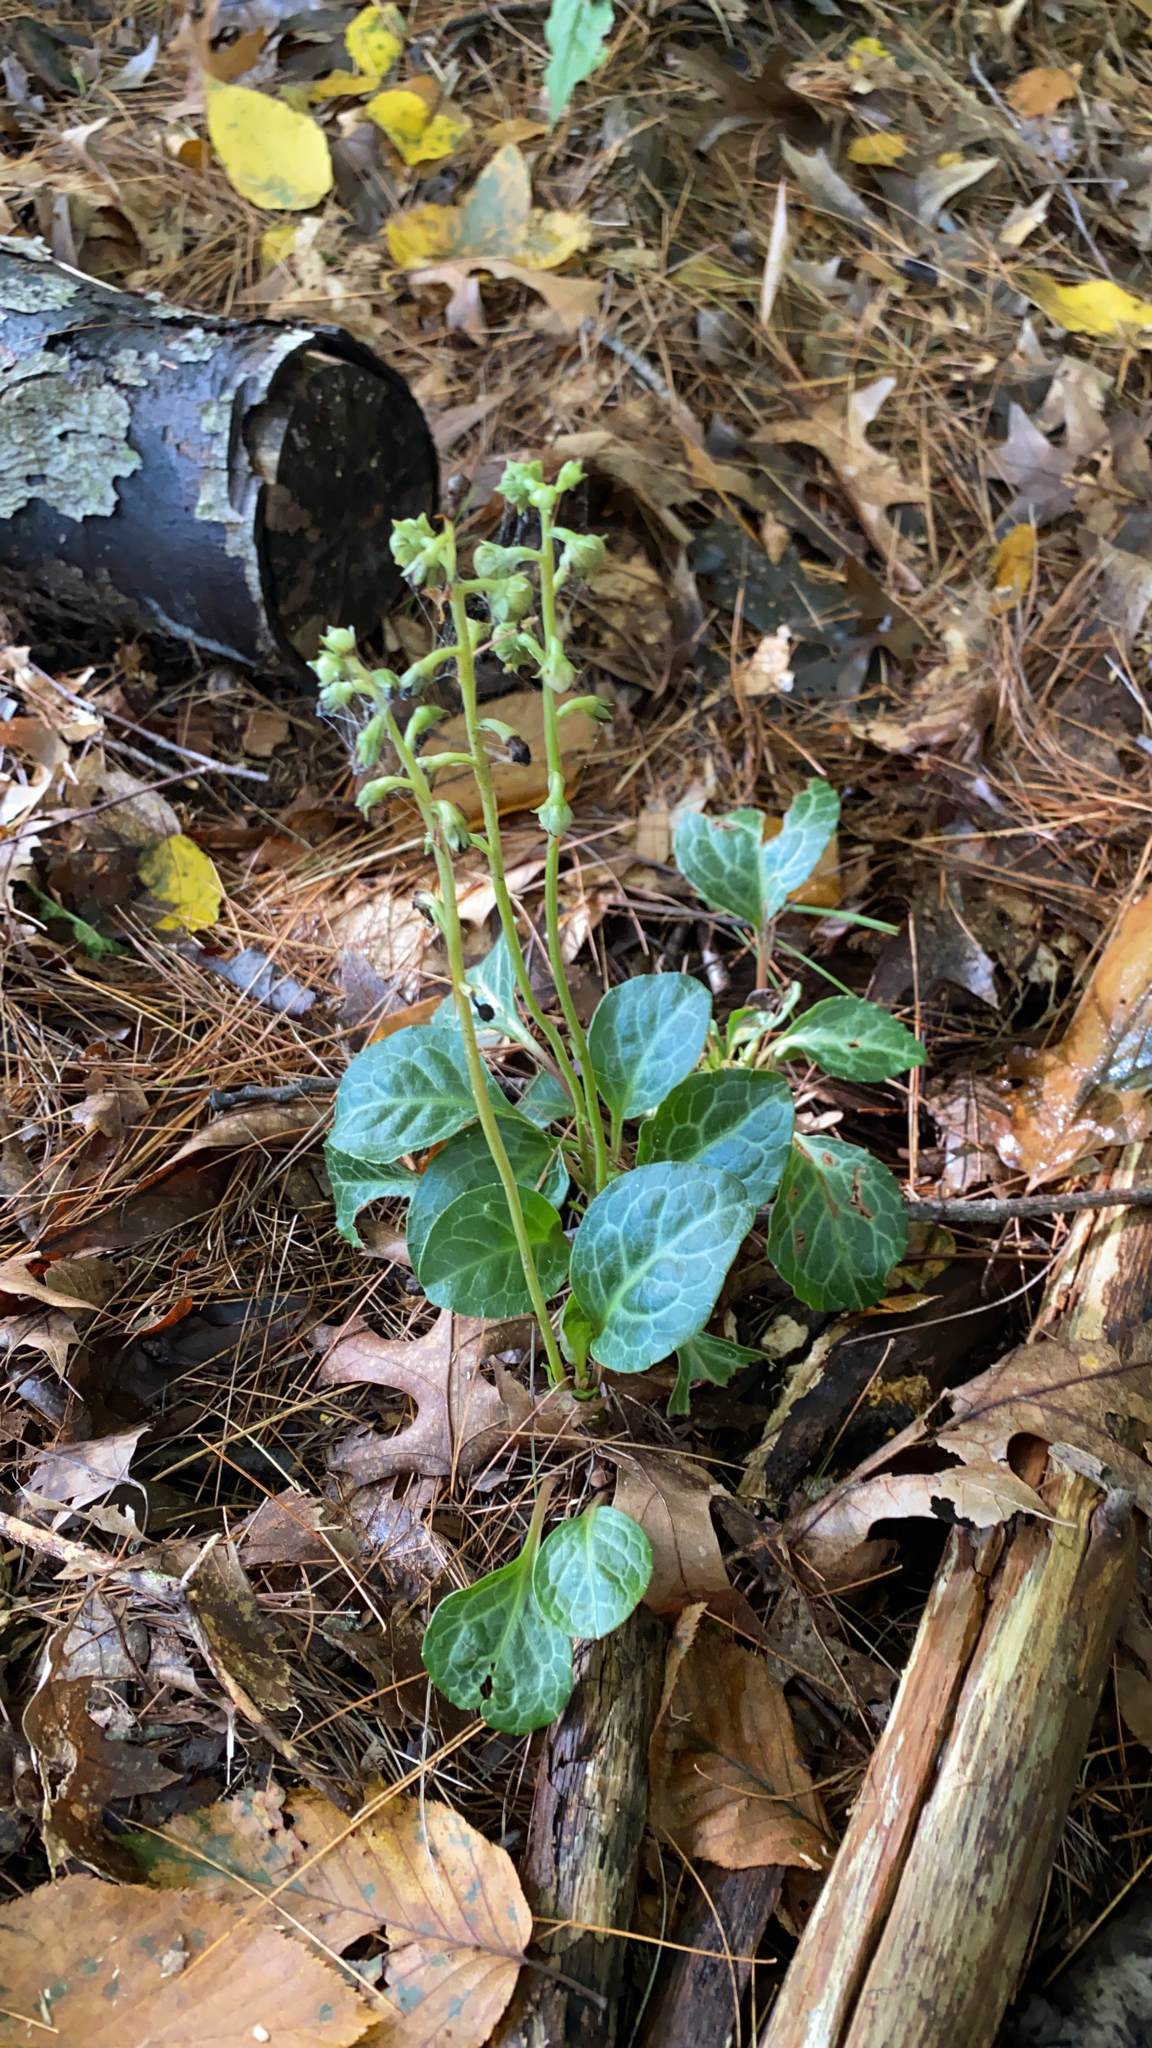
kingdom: Plantae
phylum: Tracheophyta
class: Magnoliopsida
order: Ericales
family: Ericaceae
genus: Pyrola
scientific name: Pyrola americana
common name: American wintergreen
